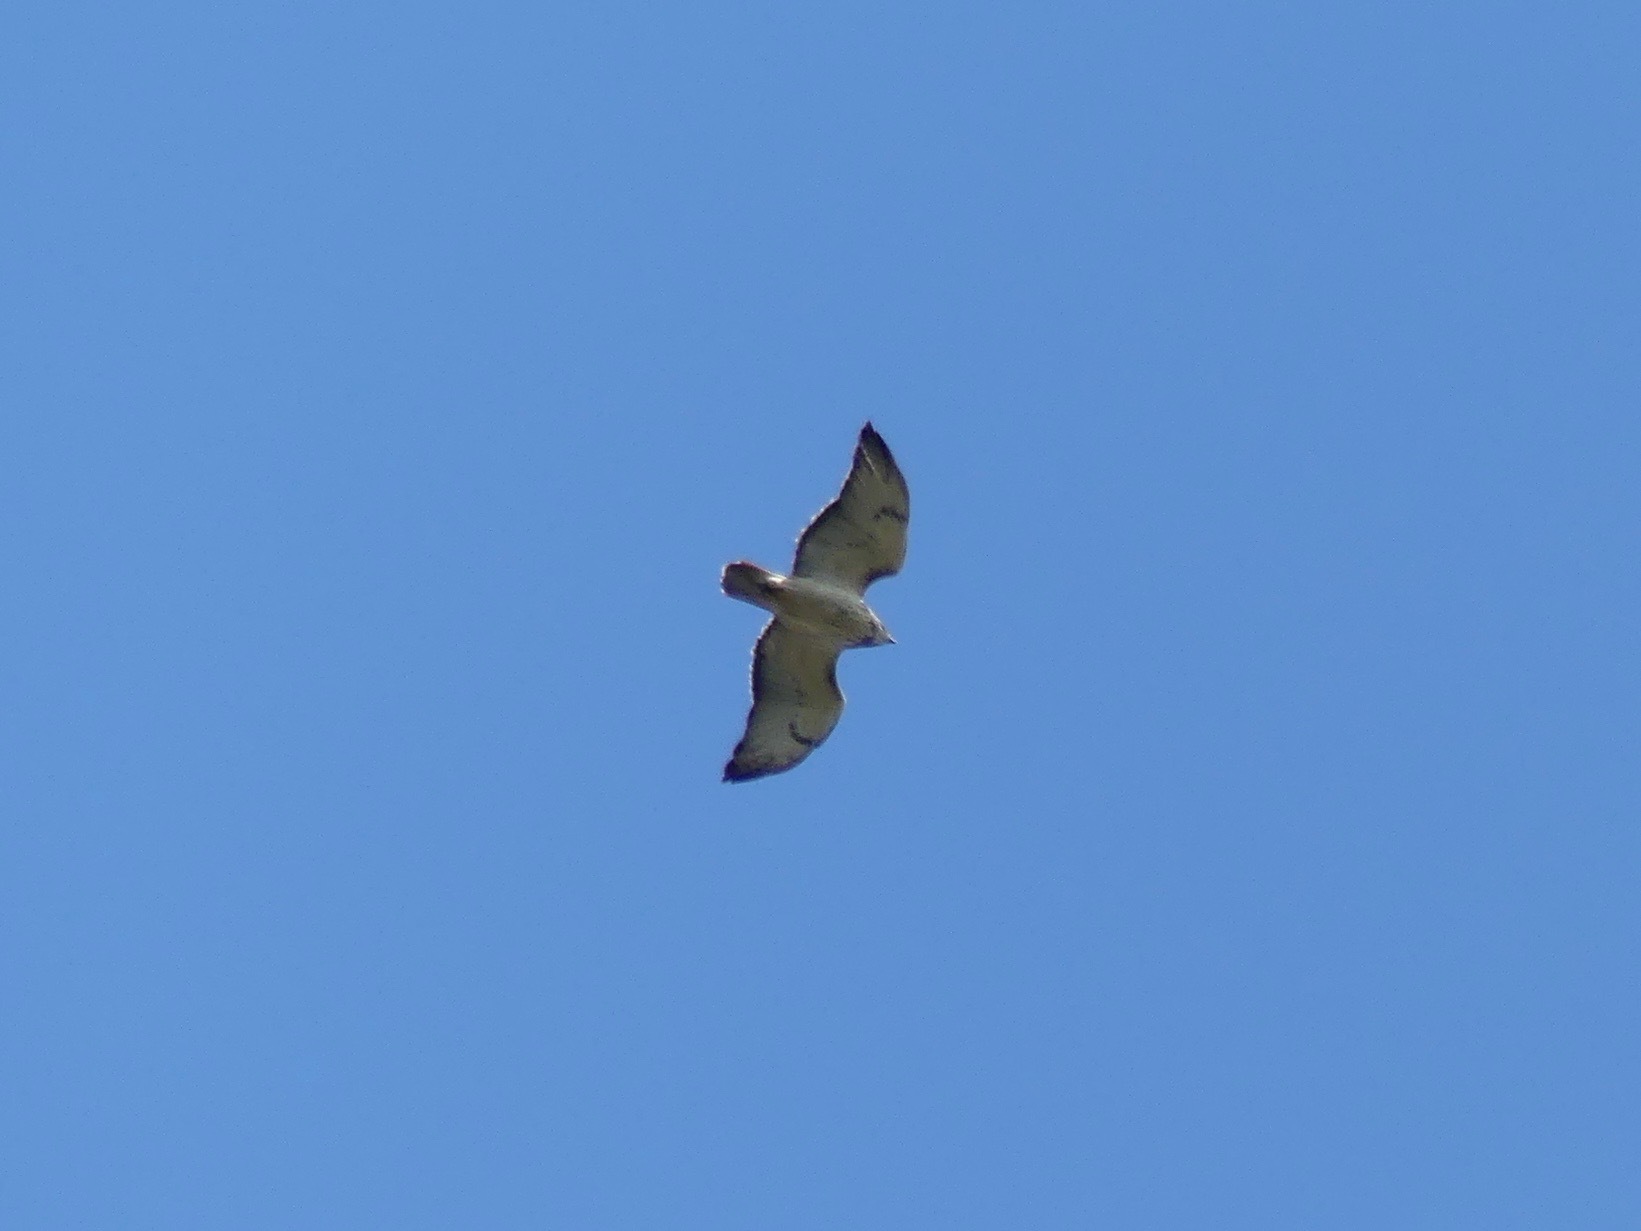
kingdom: Animalia
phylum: Chordata
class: Aves
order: Accipitriformes
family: Accipitridae
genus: Buteo
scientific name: Buteo jamaicensis
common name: Red-tailed hawk
